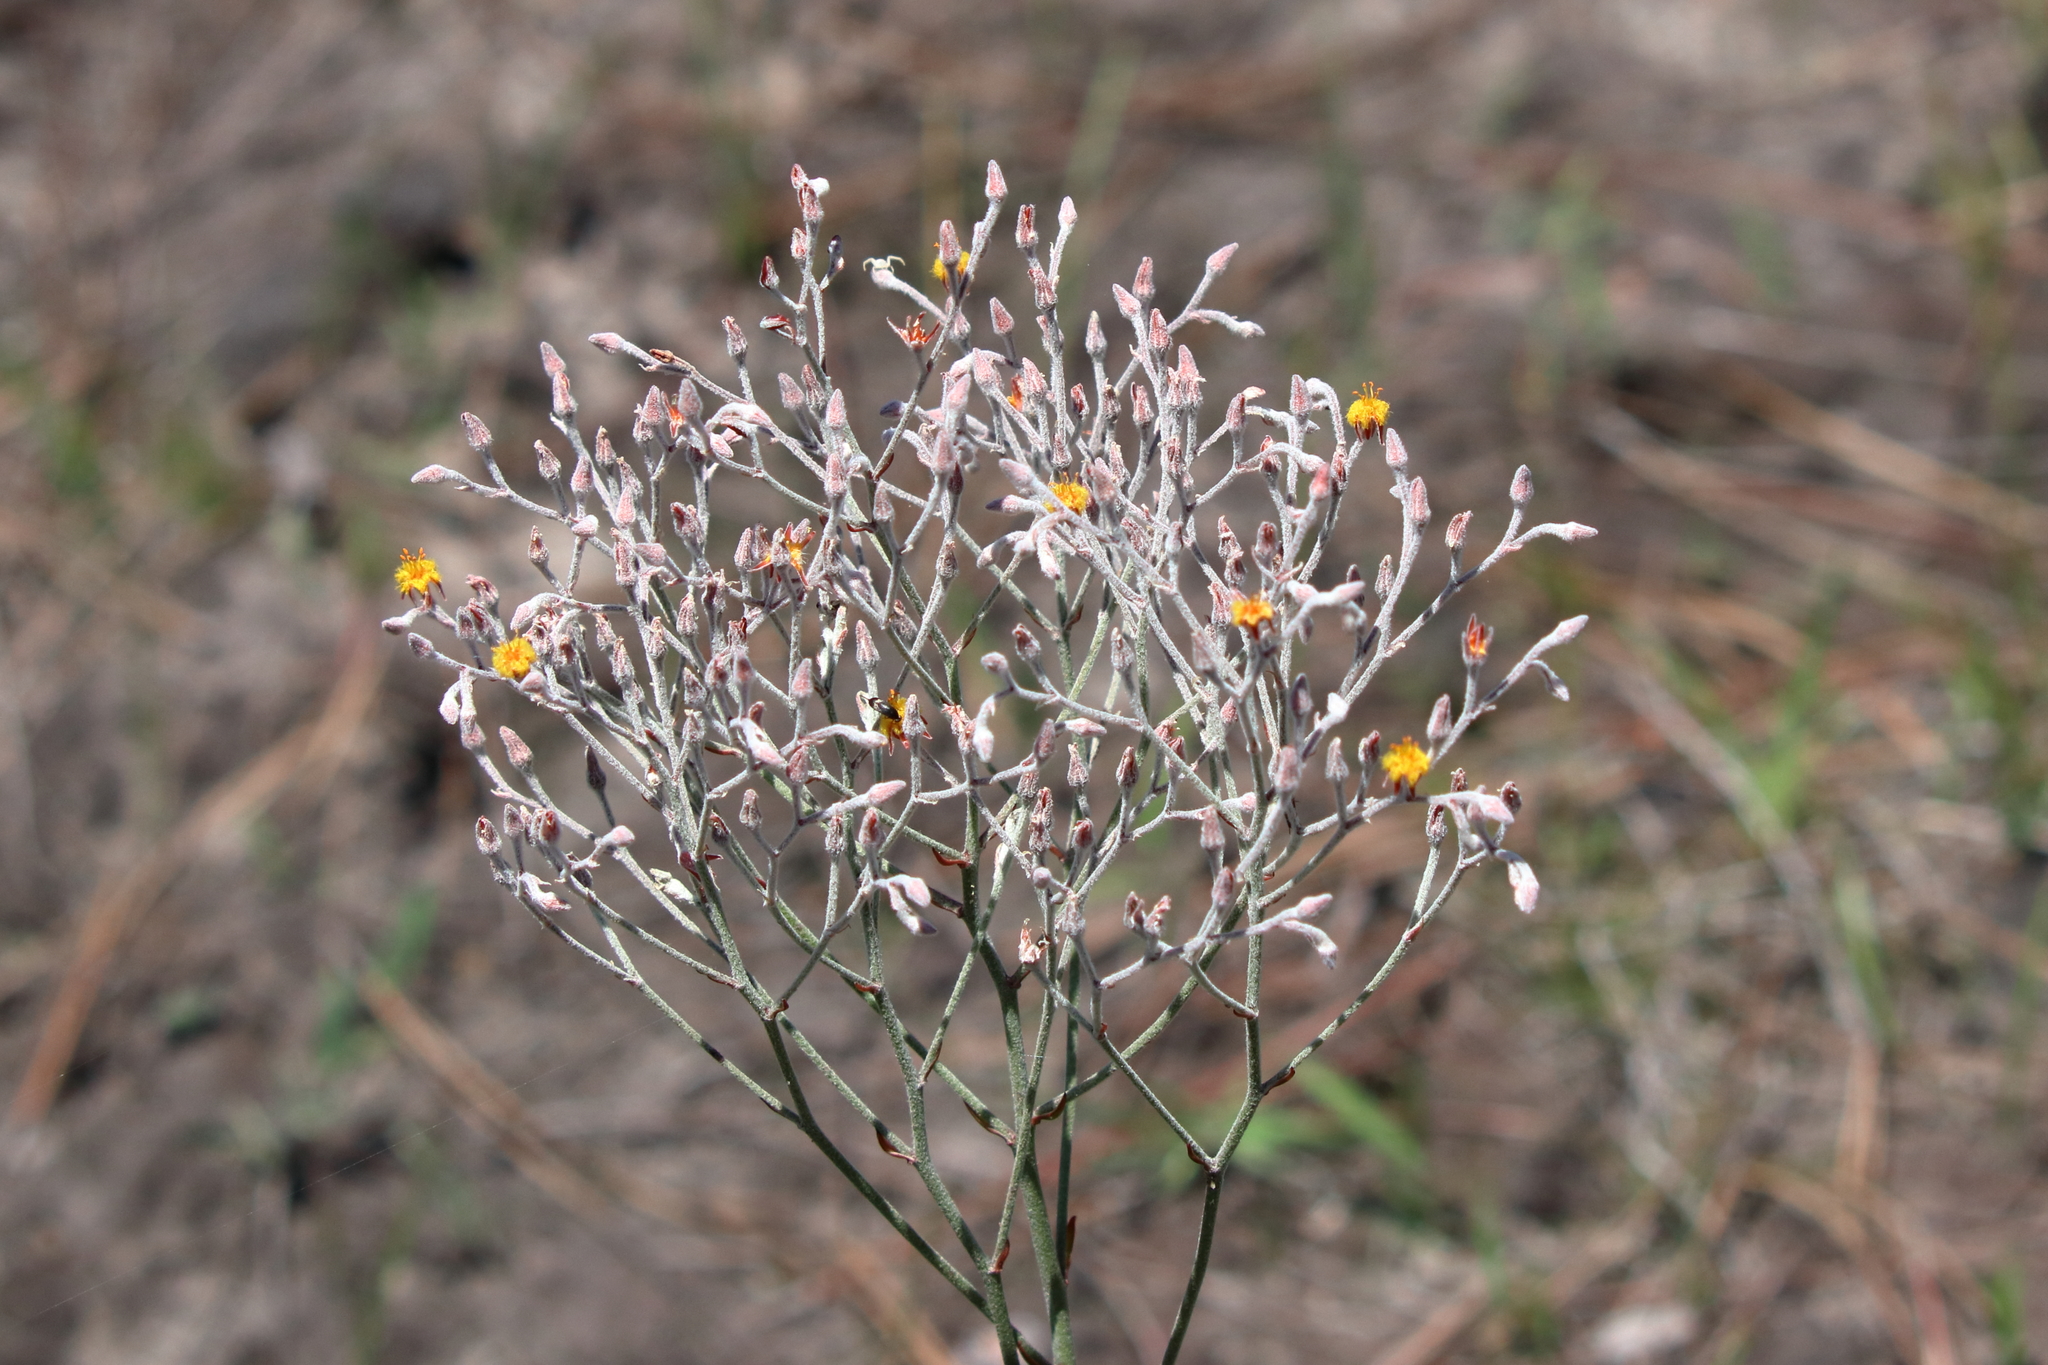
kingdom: Plantae
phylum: Tracheophyta
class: Liliopsida
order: Dioscoreales
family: Nartheciaceae
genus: Lophiola
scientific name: Lophiola aurea
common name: Golden-crest
